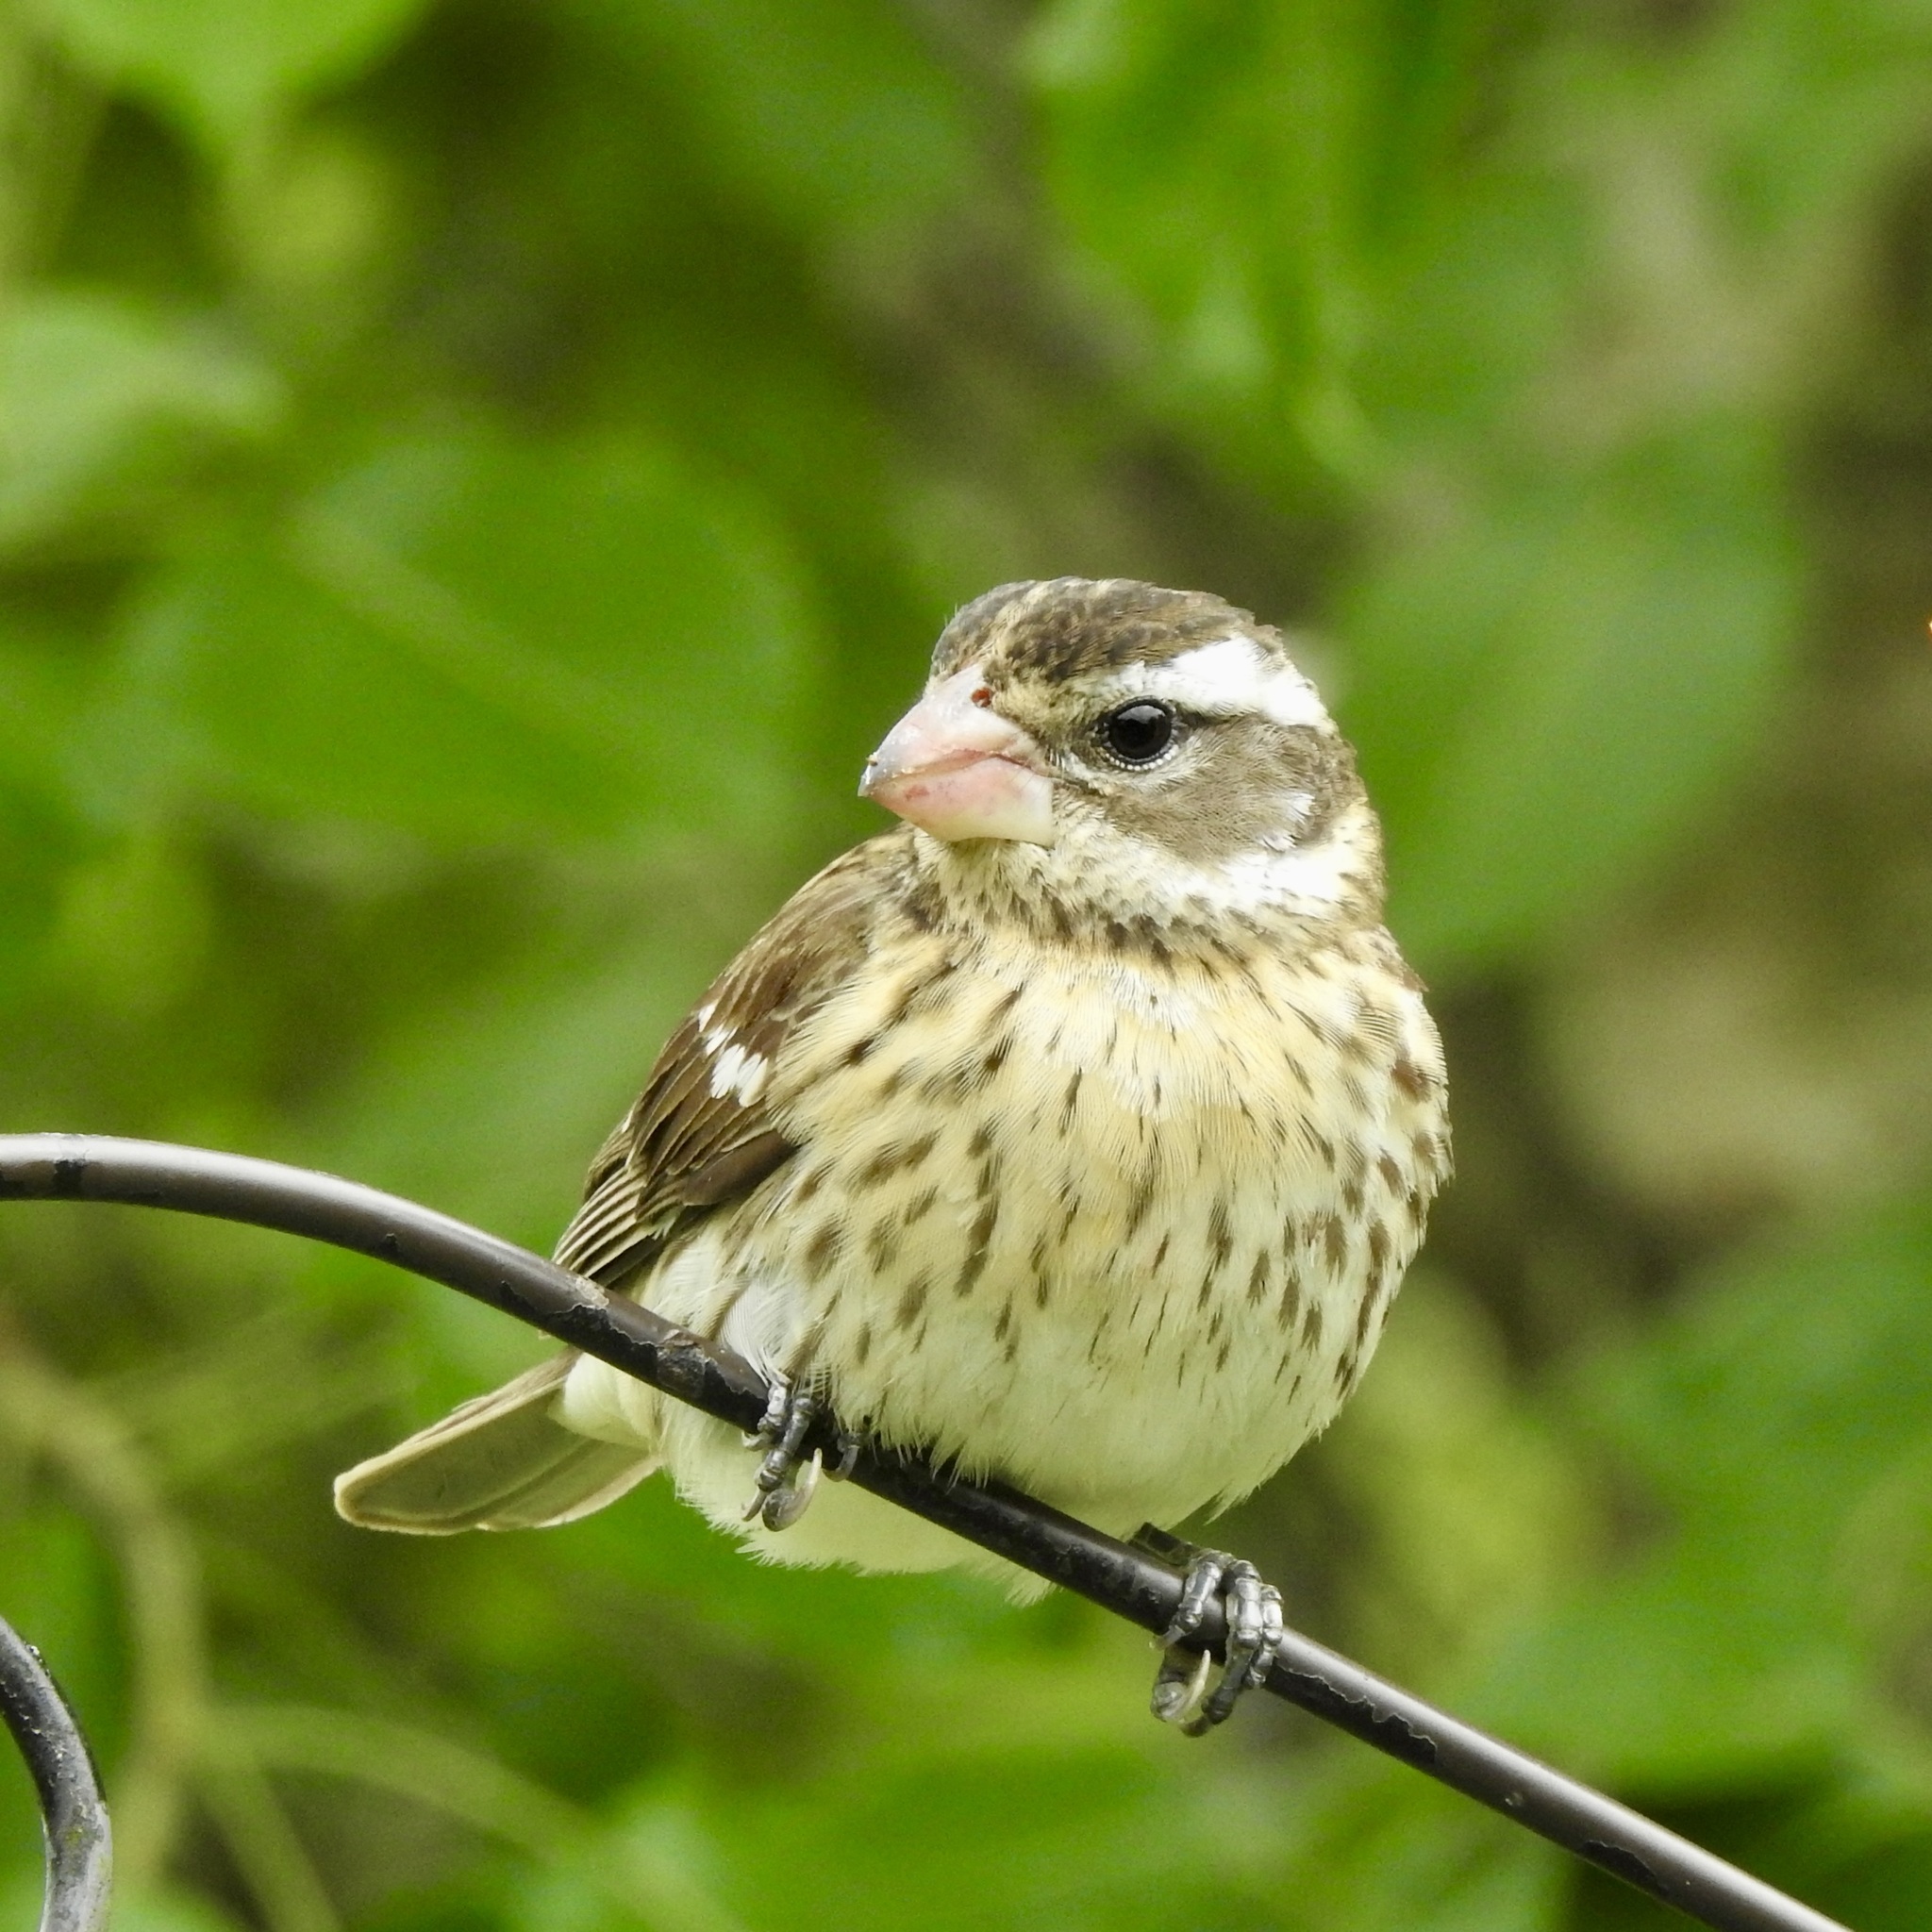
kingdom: Animalia
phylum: Chordata
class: Aves
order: Passeriformes
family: Cardinalidae
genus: Pheucticus
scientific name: Pheucticus ludovicianus
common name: Rose-breasted grosbeak
